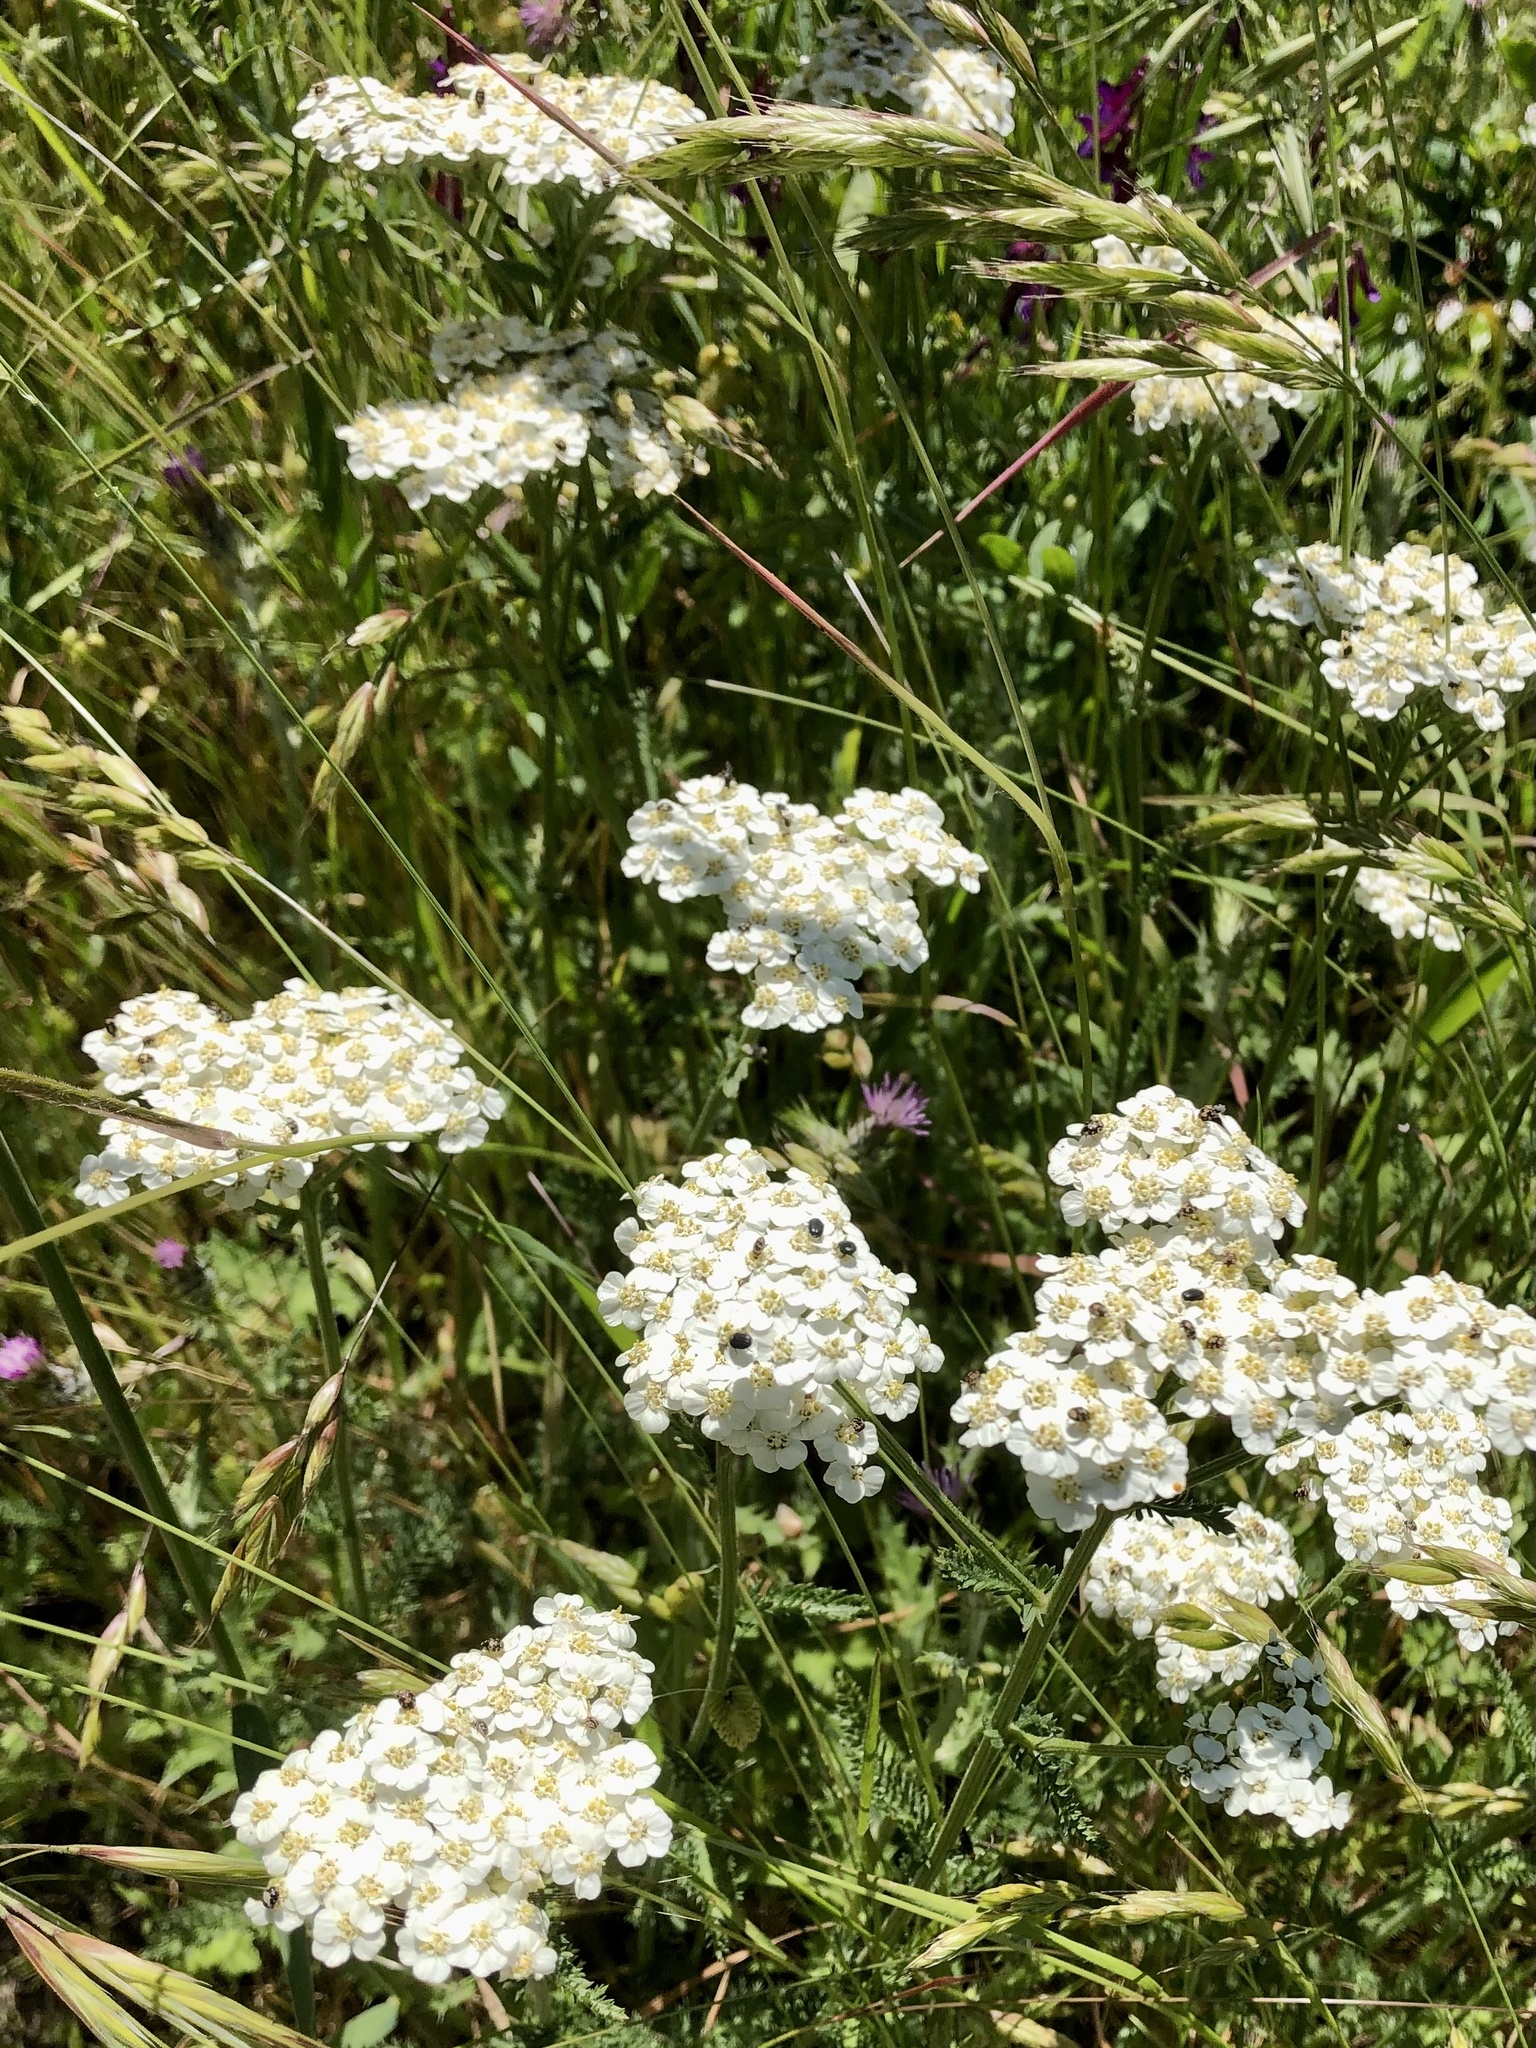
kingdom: Plantae
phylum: Tracheophyta
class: Magnoliopsida
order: Asterales
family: Asteraceae
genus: Achillea
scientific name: Achillea millefolium
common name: Yarrow
